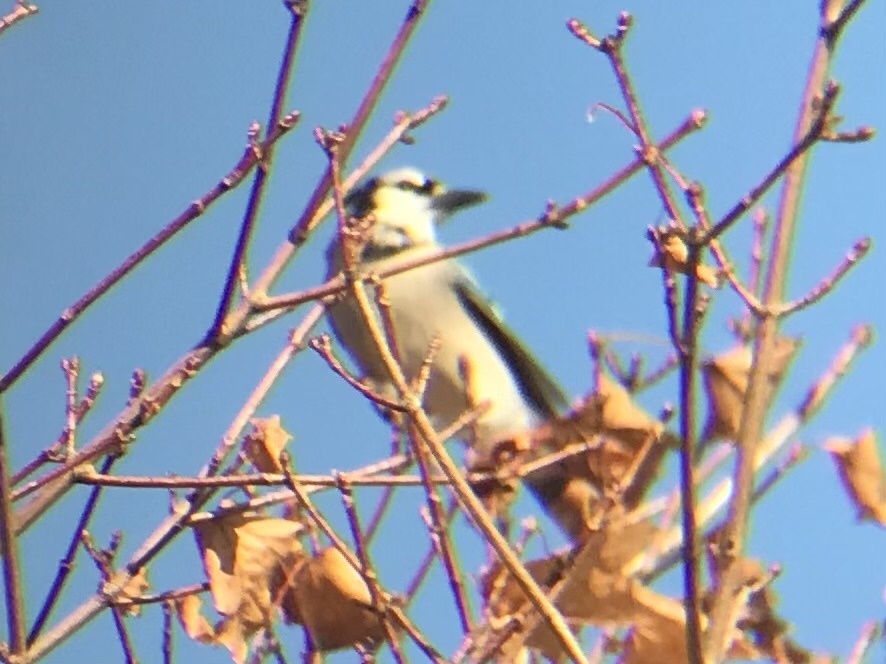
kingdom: Animalia
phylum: Chordata
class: Aves
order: Passeriformes
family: Corvidae
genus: Cyanocitta
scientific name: Cyanocitta cristata
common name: Blue jay
